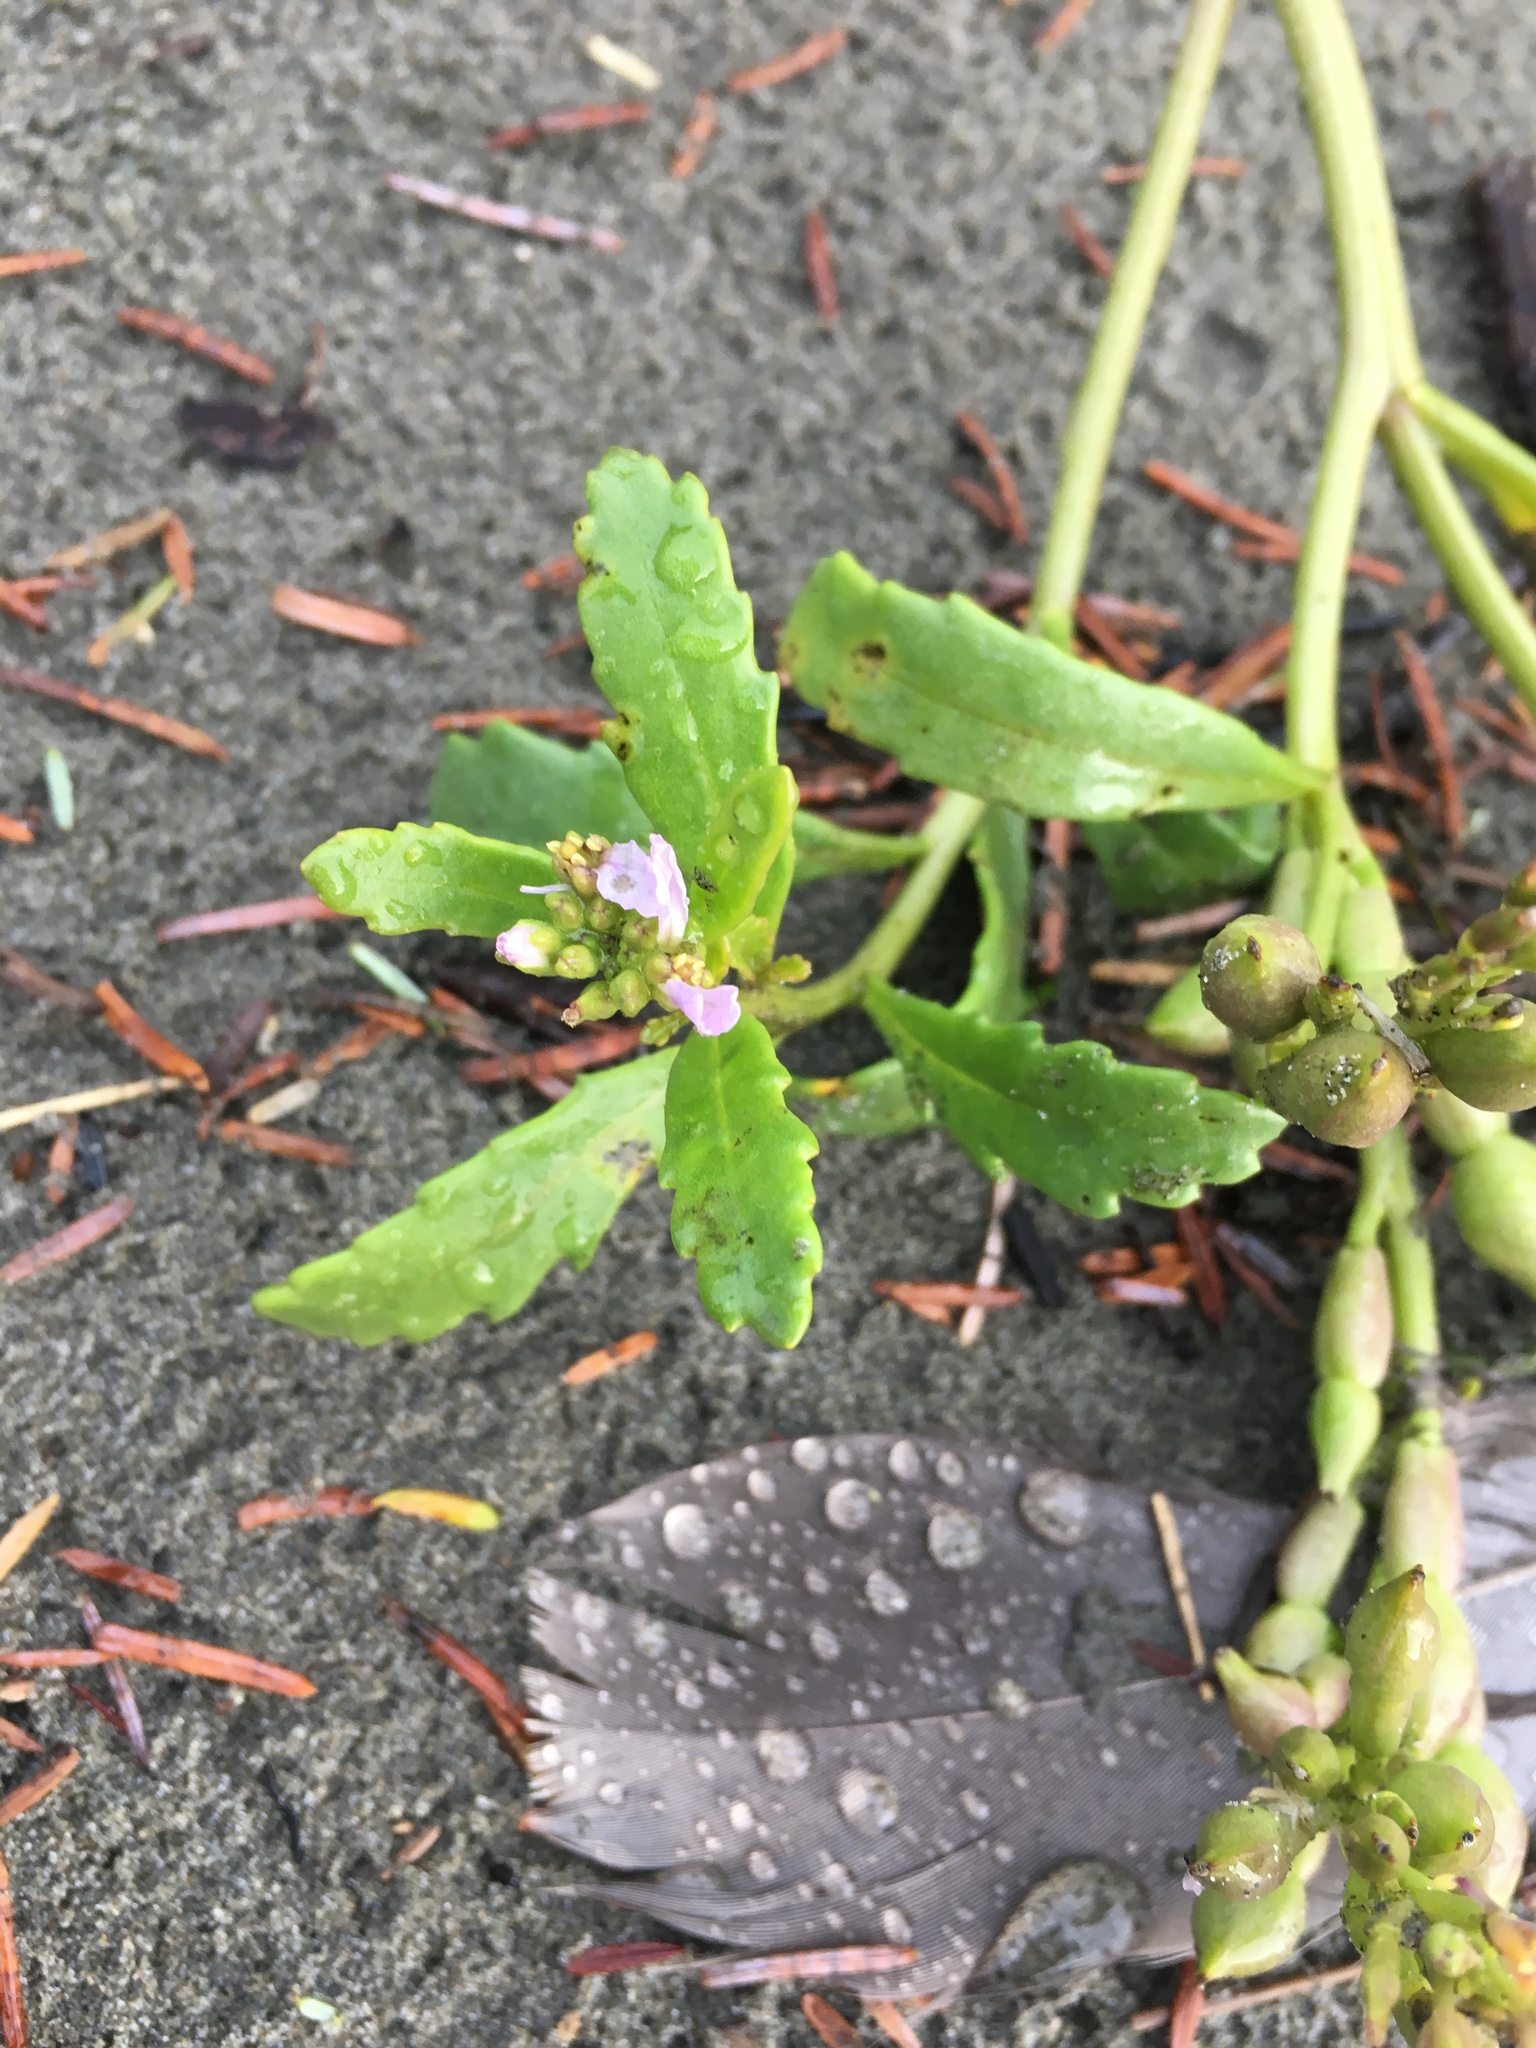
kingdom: Plantae
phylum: Tracheophyta
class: Magnoliopsida
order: Brassicales
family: Brassicaceae
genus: Cakile
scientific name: Cakile edentula
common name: American sea rocket
